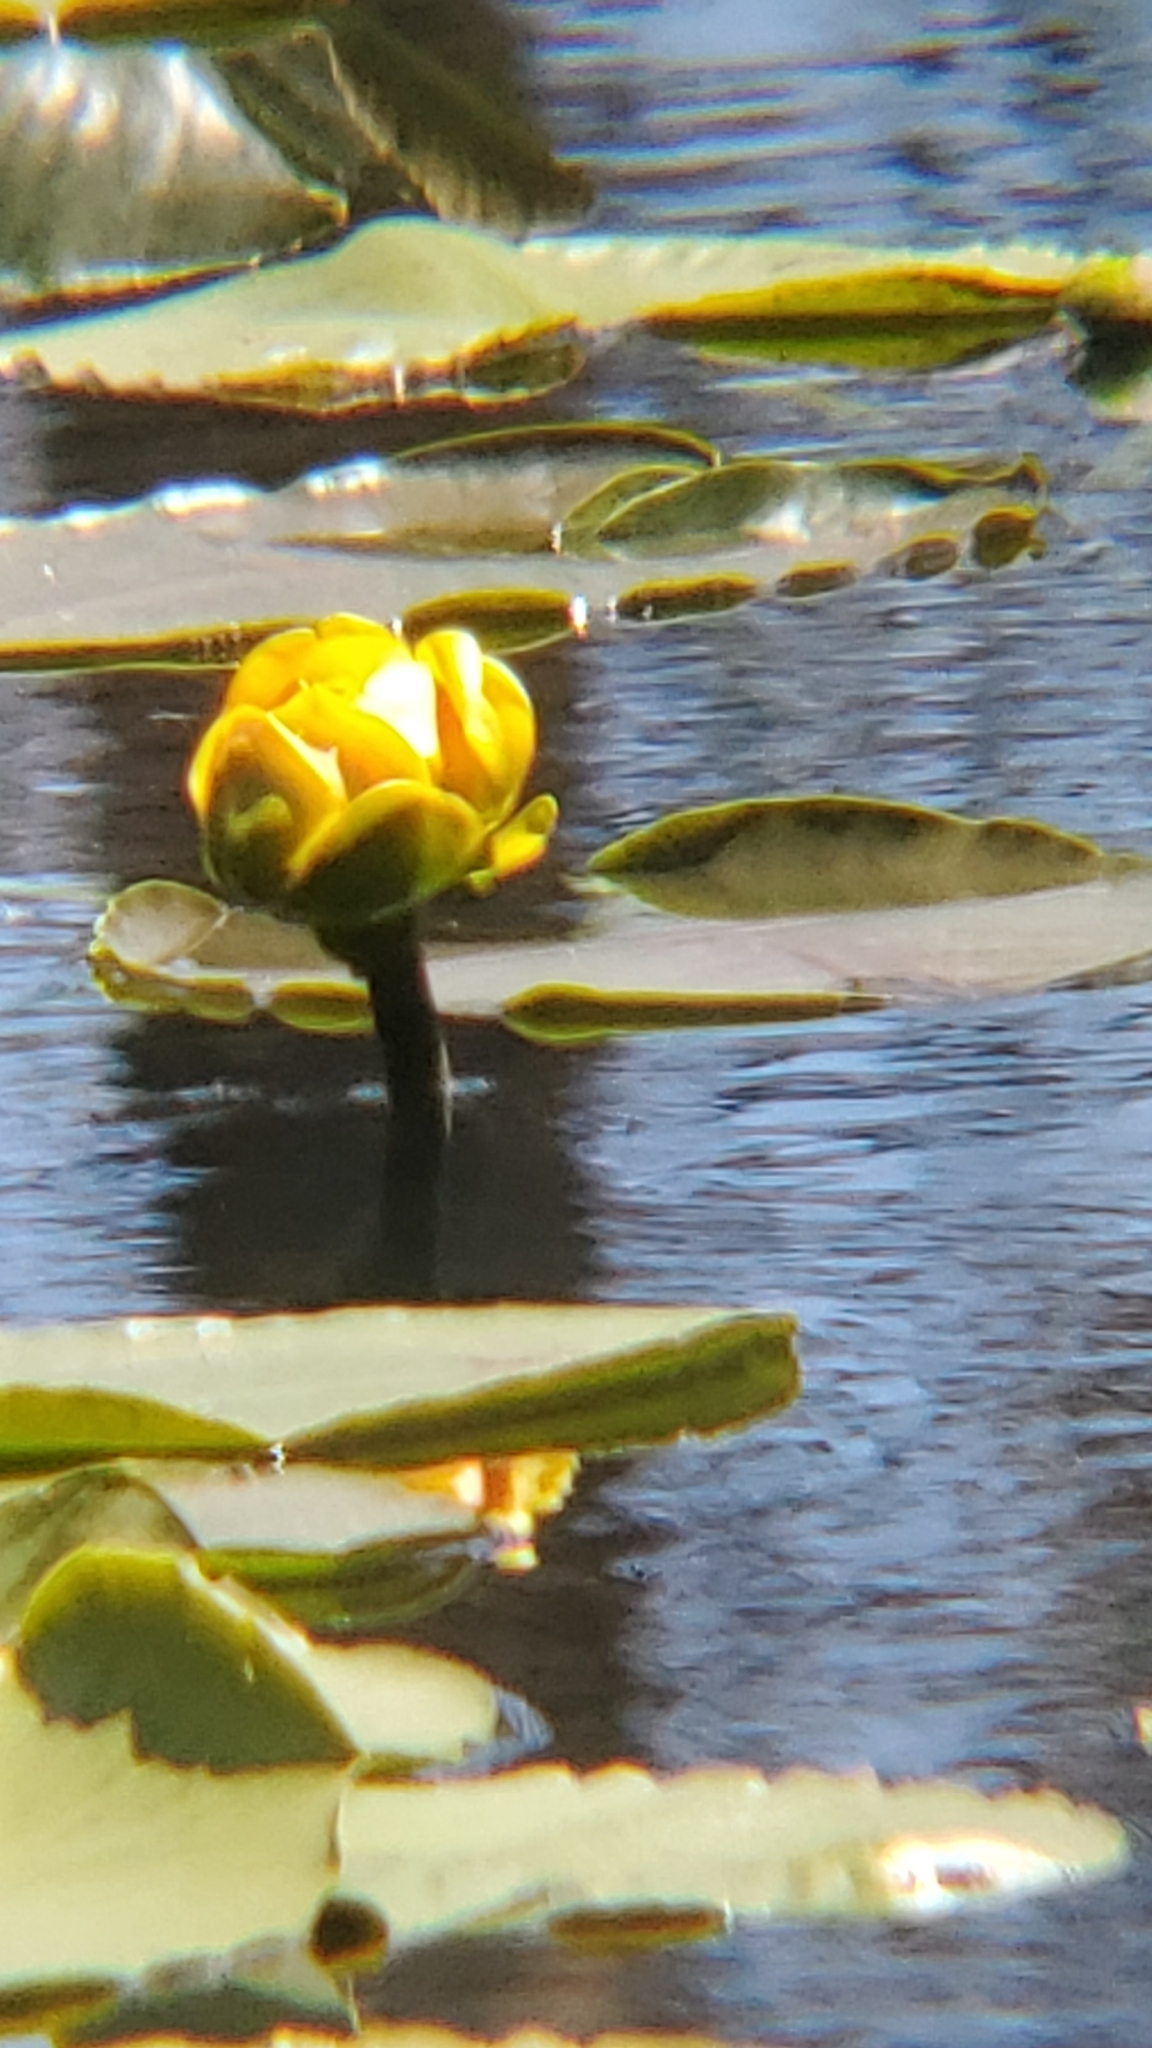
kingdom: Plantae
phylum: Tracheophyta
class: Magnoliopsida
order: Nymphaeales
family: Nymphaeaceae
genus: Nuphar
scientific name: Nuphar polysepala
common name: Rocky mountain cow-lily
